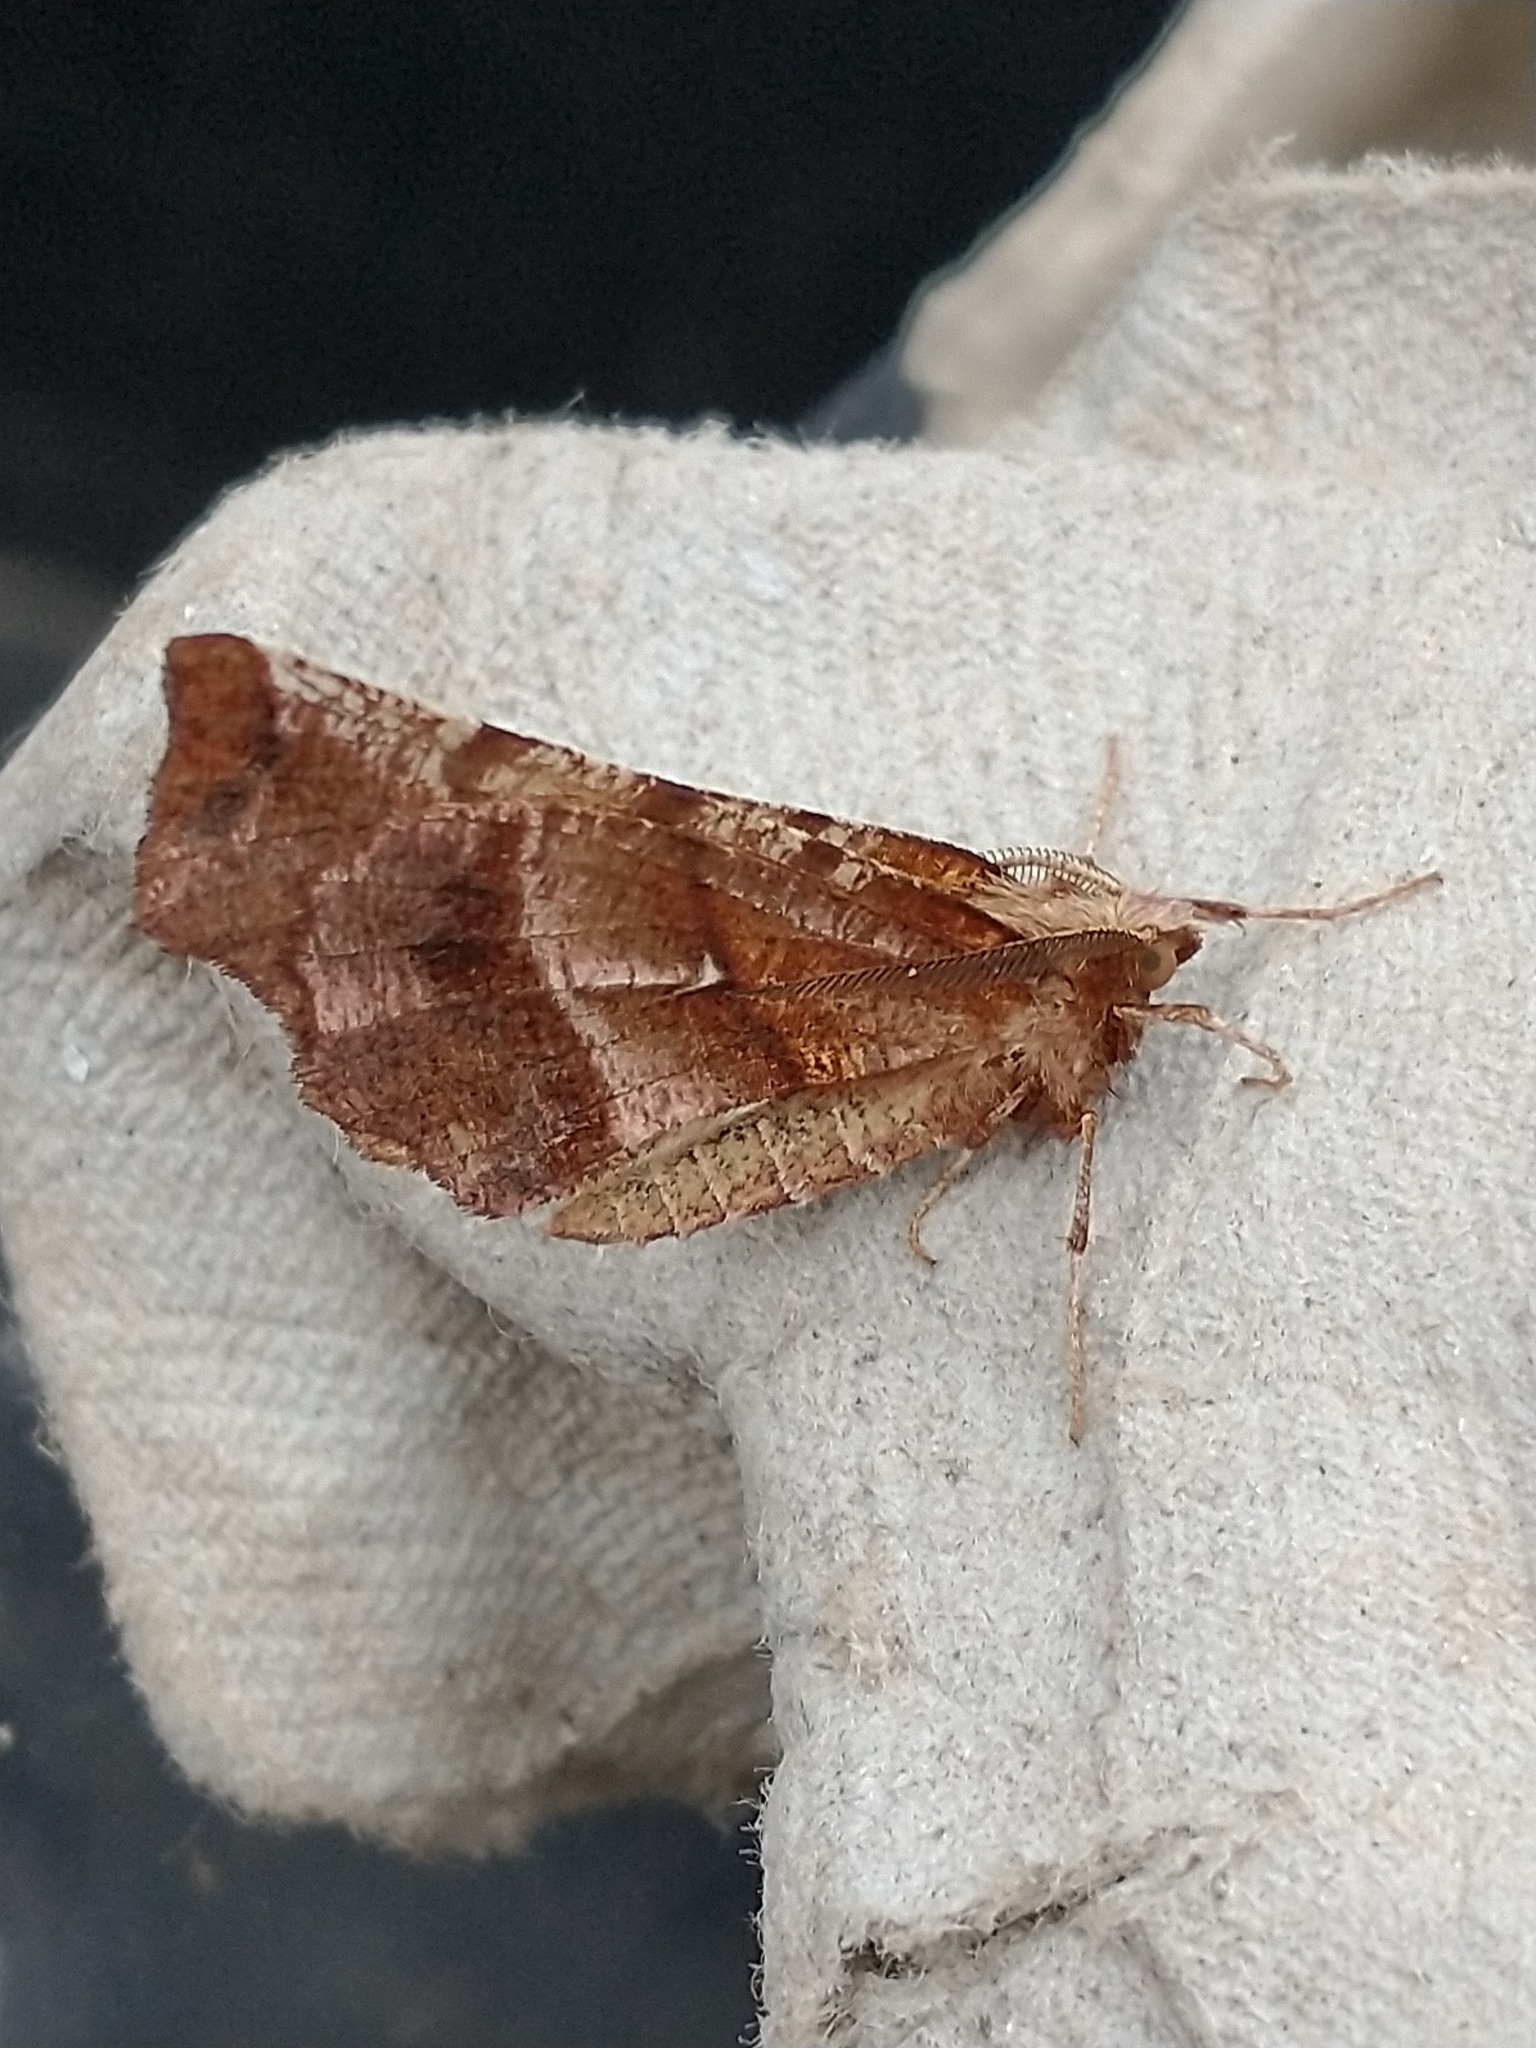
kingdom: Animalia
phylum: Arthropoda
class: Insecta
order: Lepidoptera
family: Geometridae
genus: Selenia
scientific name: Selenia dentaria
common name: Early thorn
